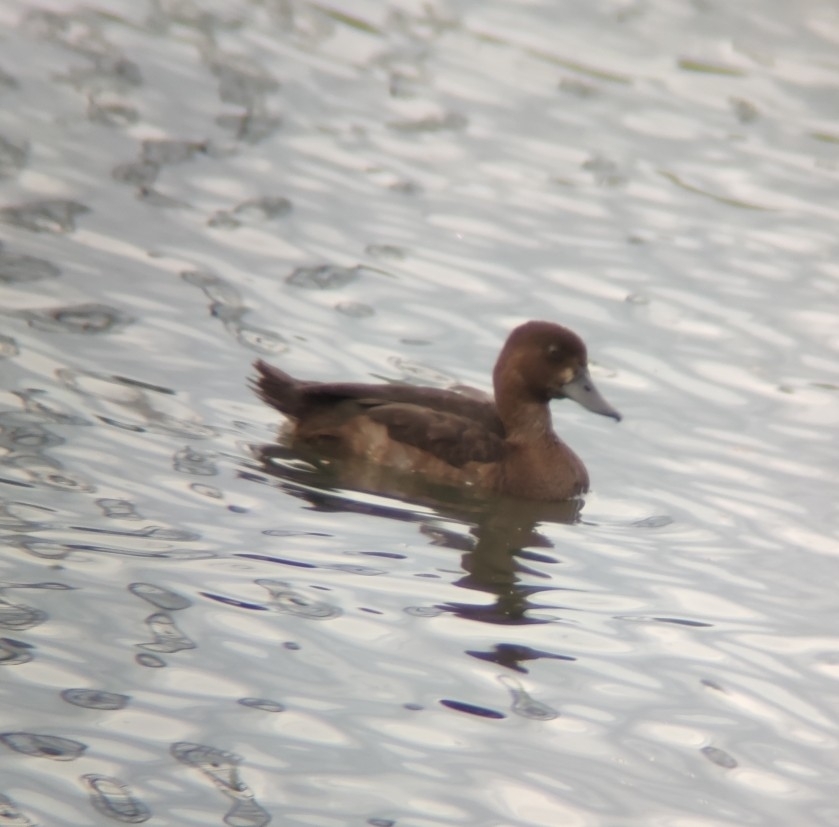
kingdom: Animalia
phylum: Chordata
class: Aves
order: Anseriformes
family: Anatidae
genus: Aythya
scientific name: Aythya fuligula
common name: Tufted duck
